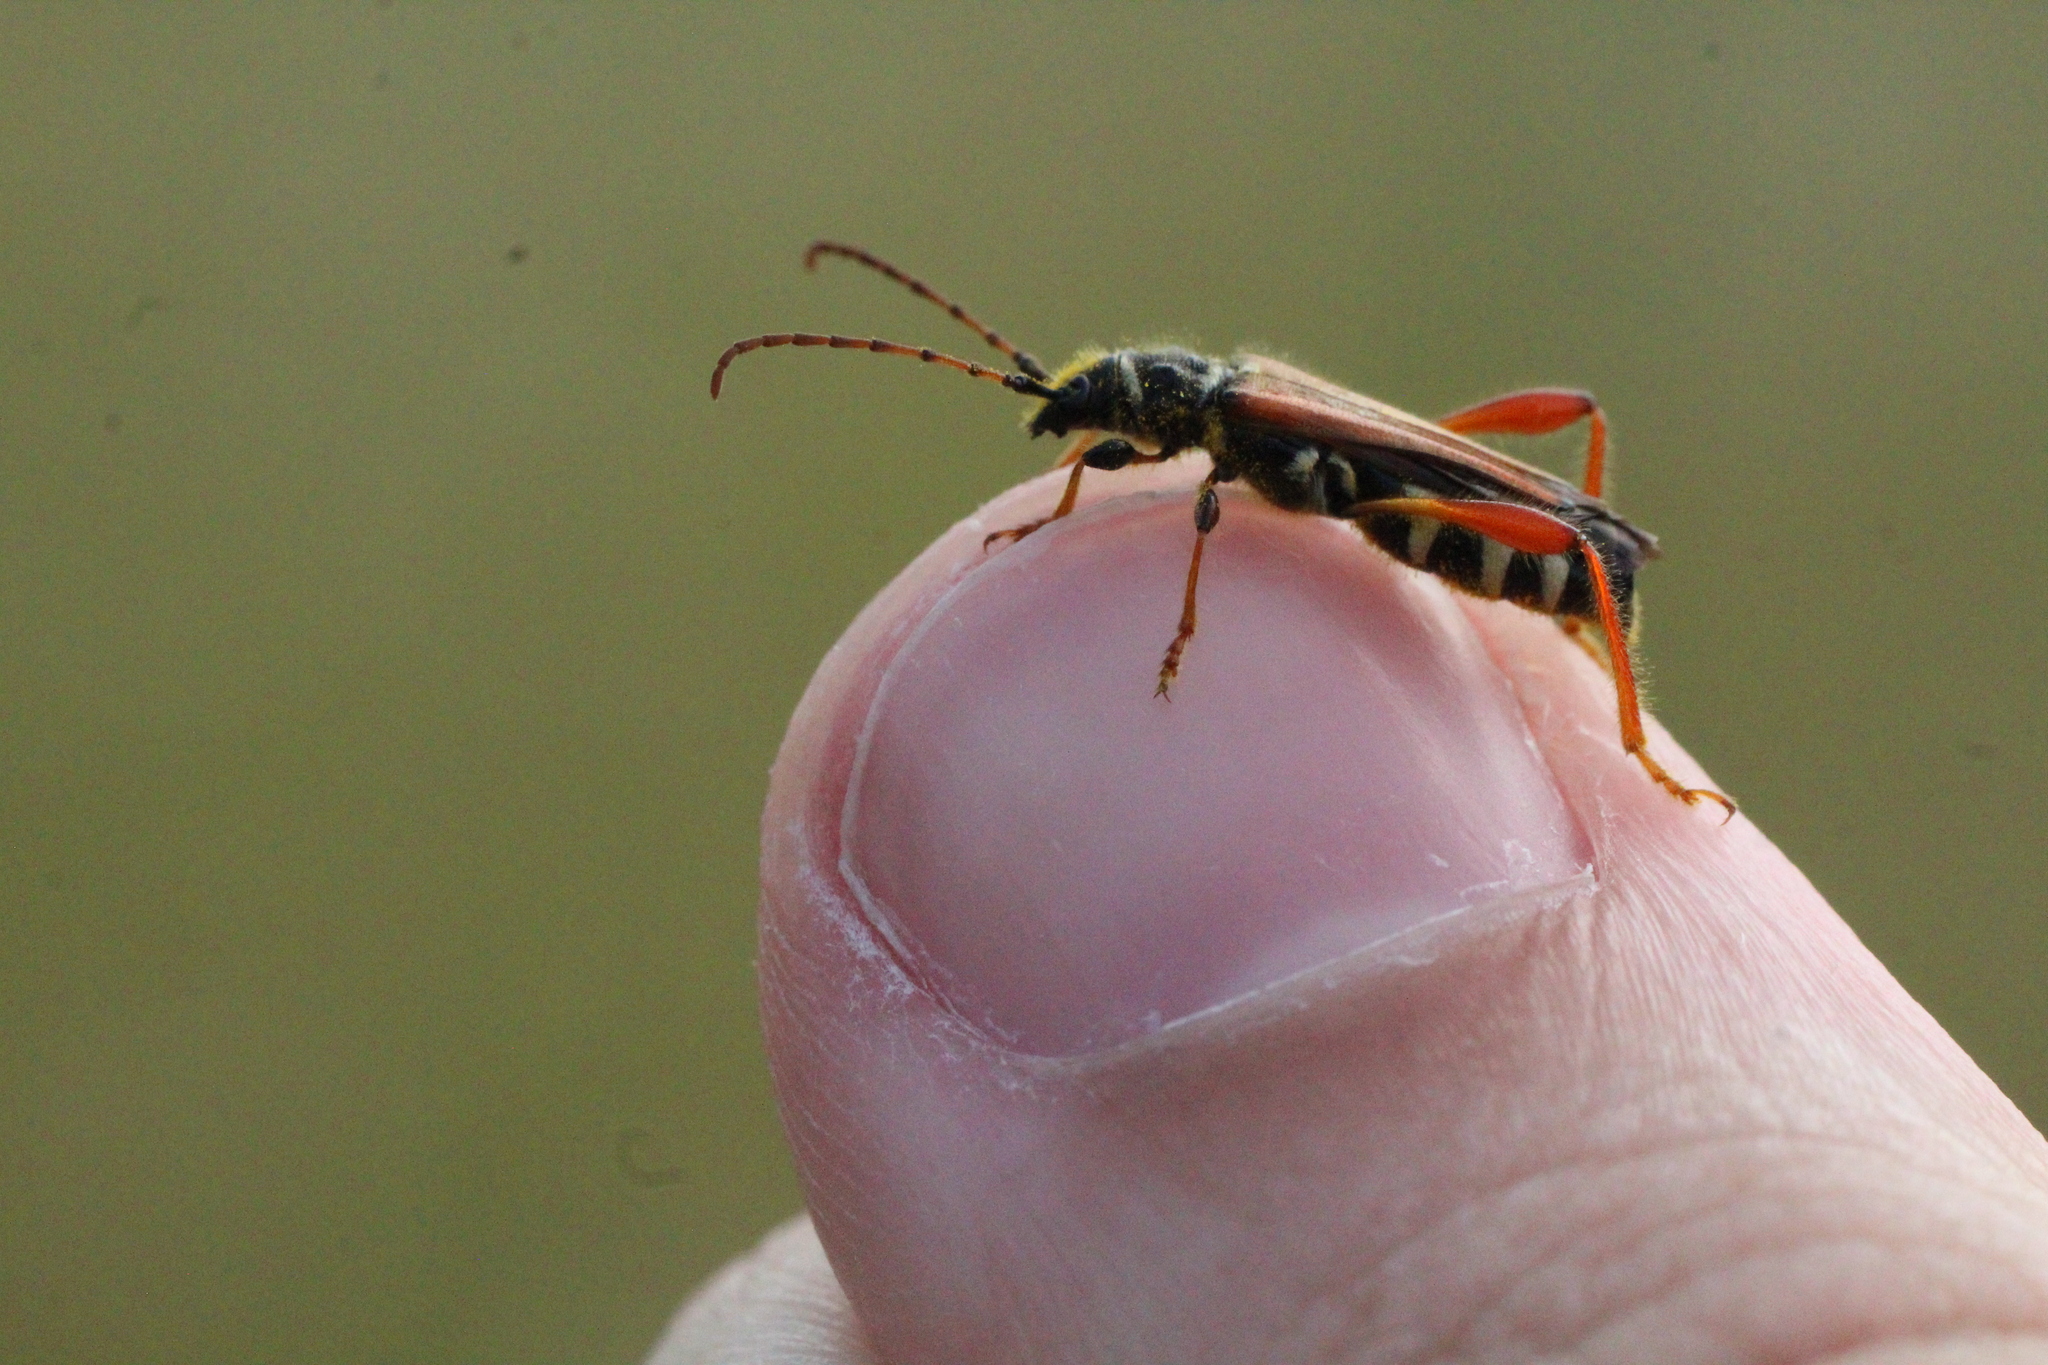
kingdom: Animalia
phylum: Arthropoda
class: Insecta
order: Coleoptera
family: Cerambycidae
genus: Stenopterus
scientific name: Stenopterus rufus
